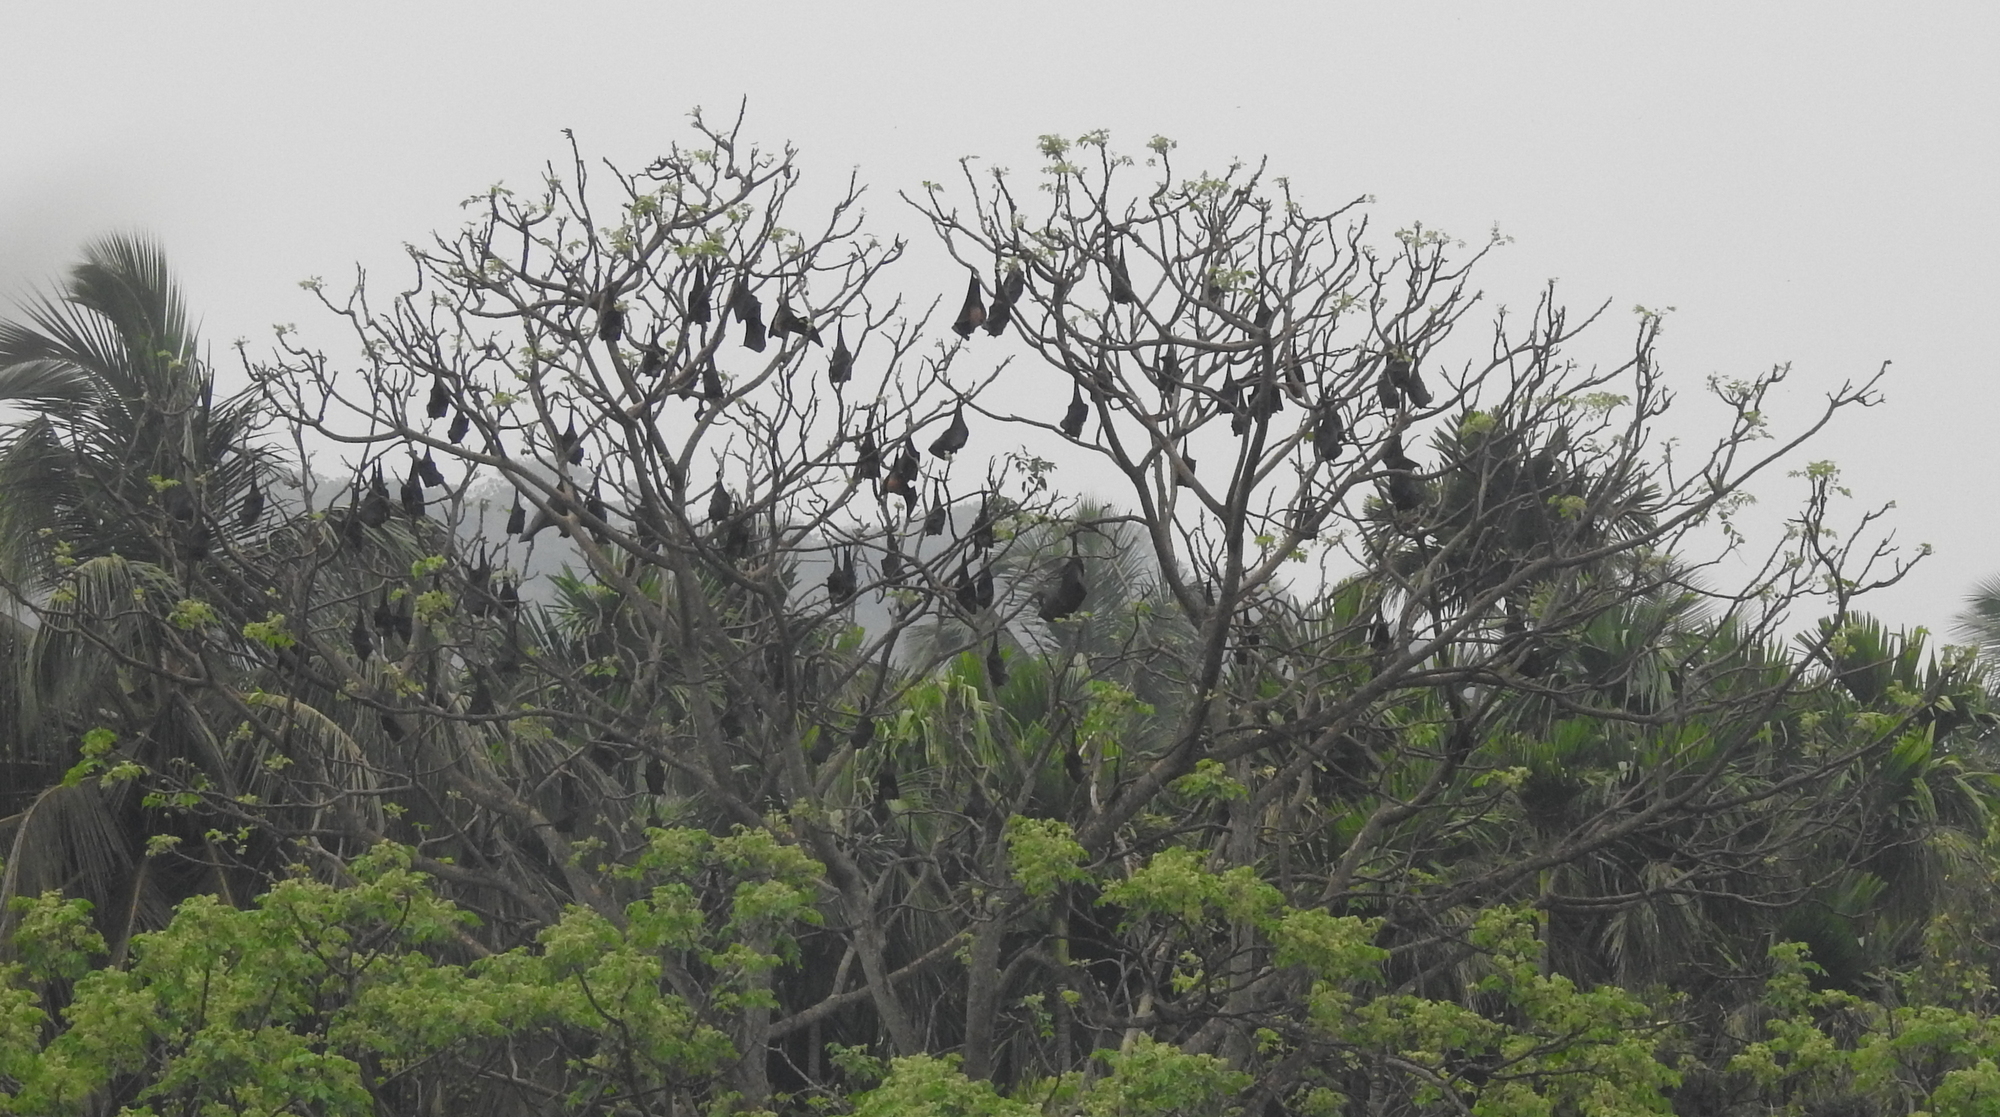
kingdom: Animalia
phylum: Chordata
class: Mammalia
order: Chiroptera
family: Pteropodidae
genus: Pteropus
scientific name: Pteropus vampyrus
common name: Large flying fox
